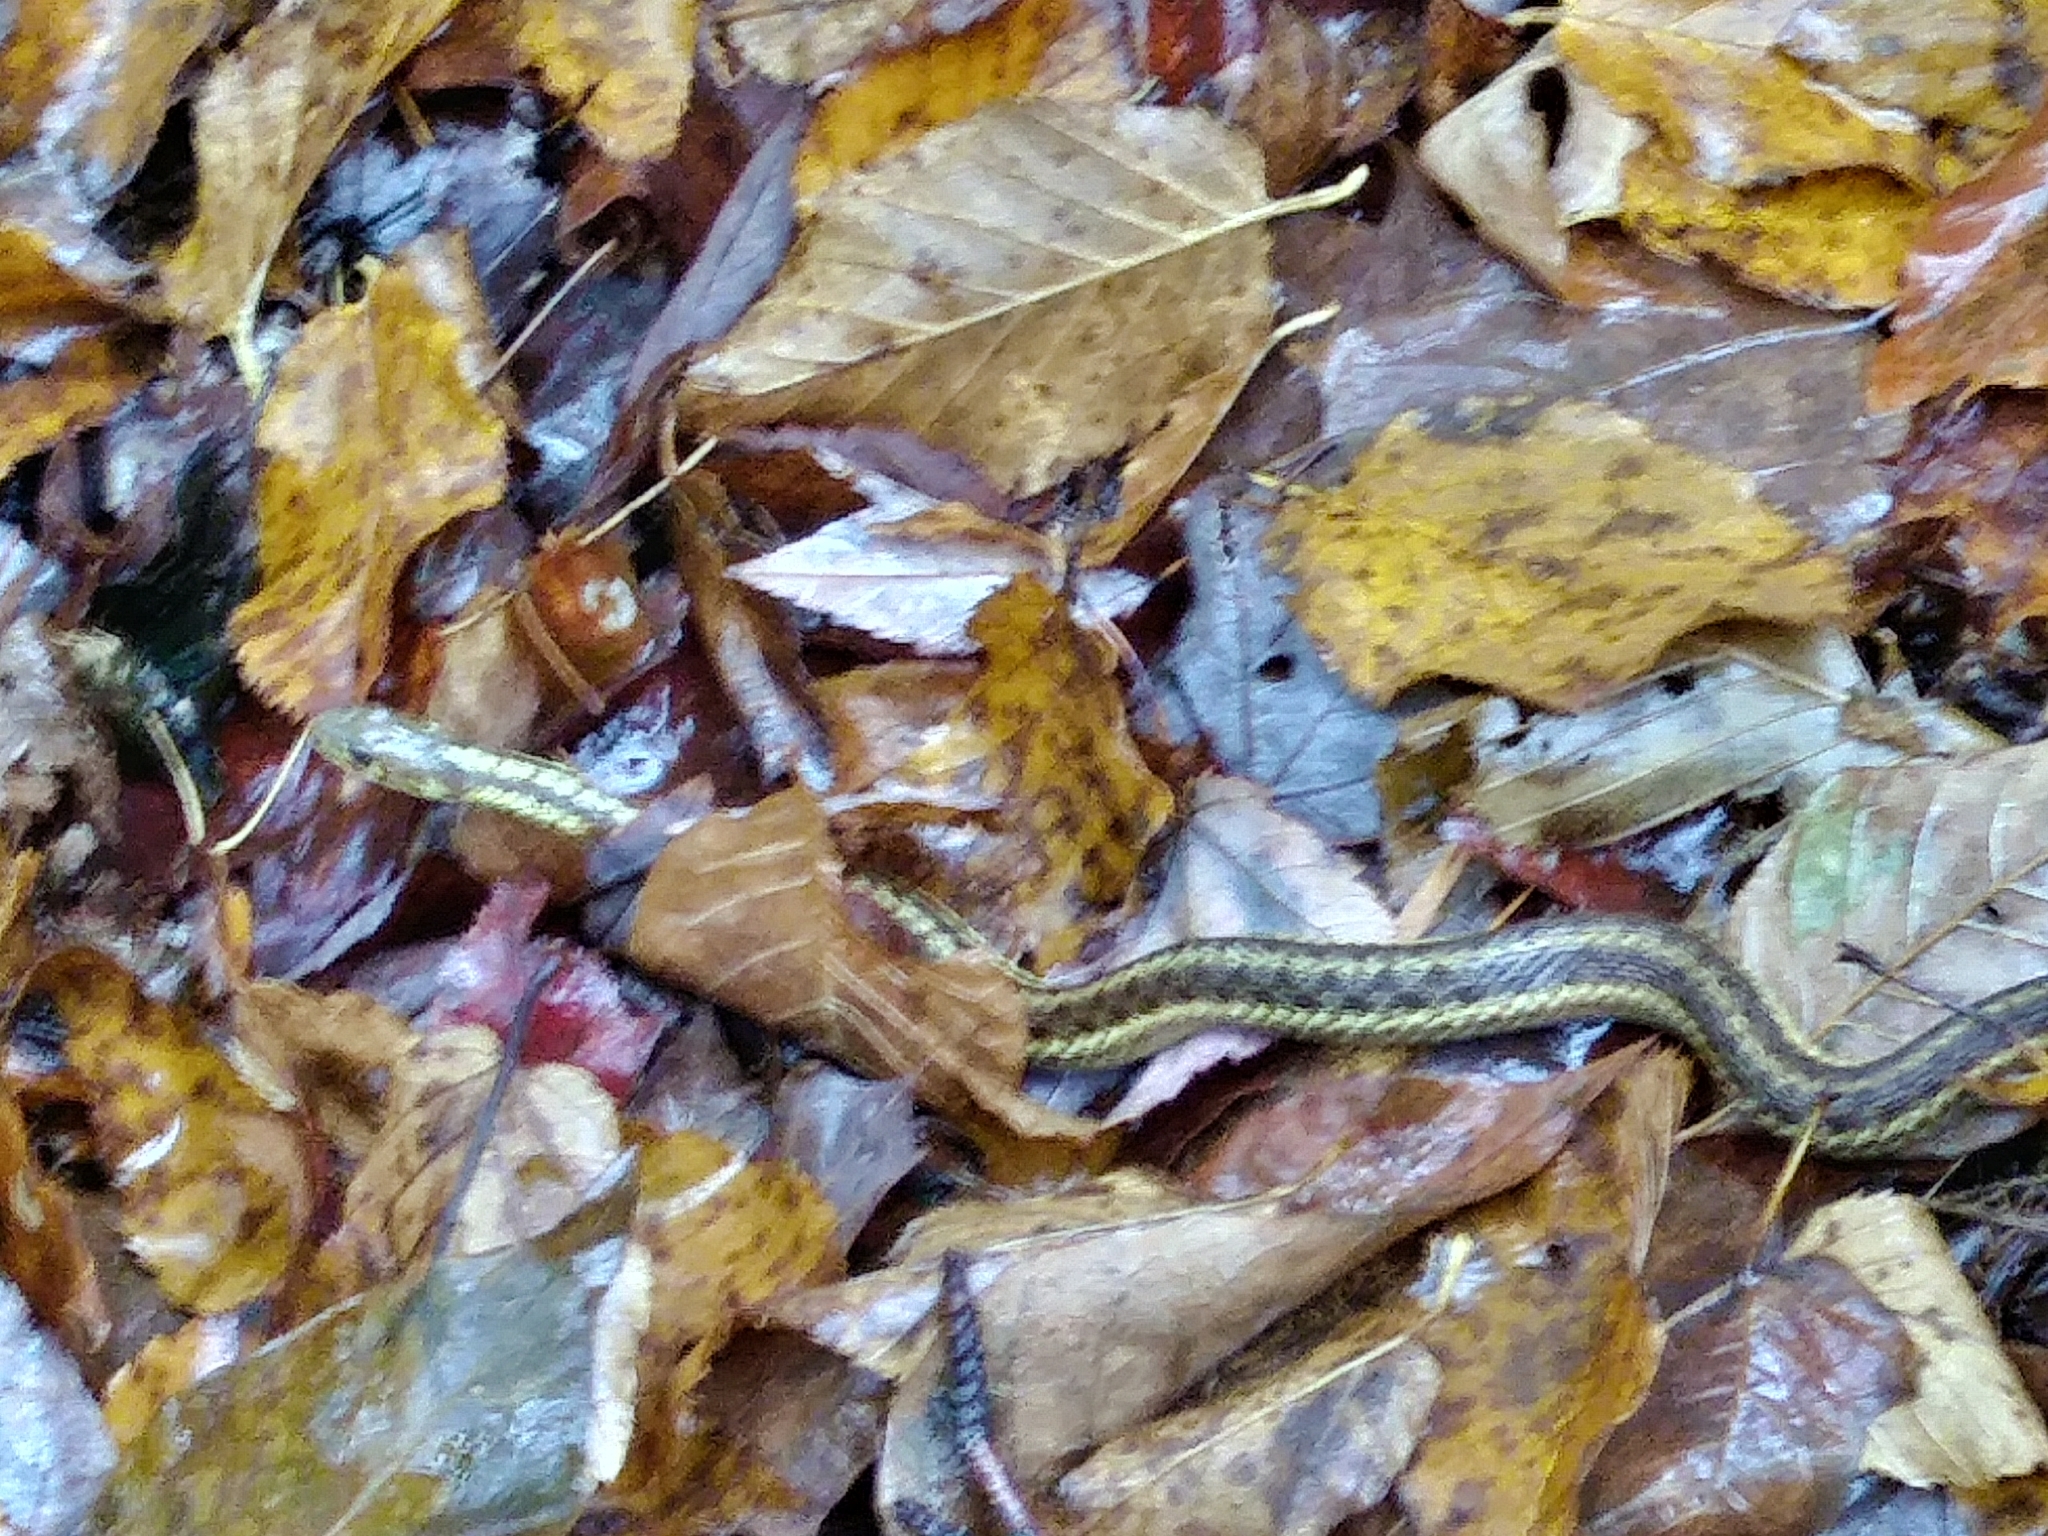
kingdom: Animalia
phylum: Chordata
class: Squamata
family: Colubridae
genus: Thamnophis
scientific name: Thamnophis sirtalis
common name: Common garter snake
